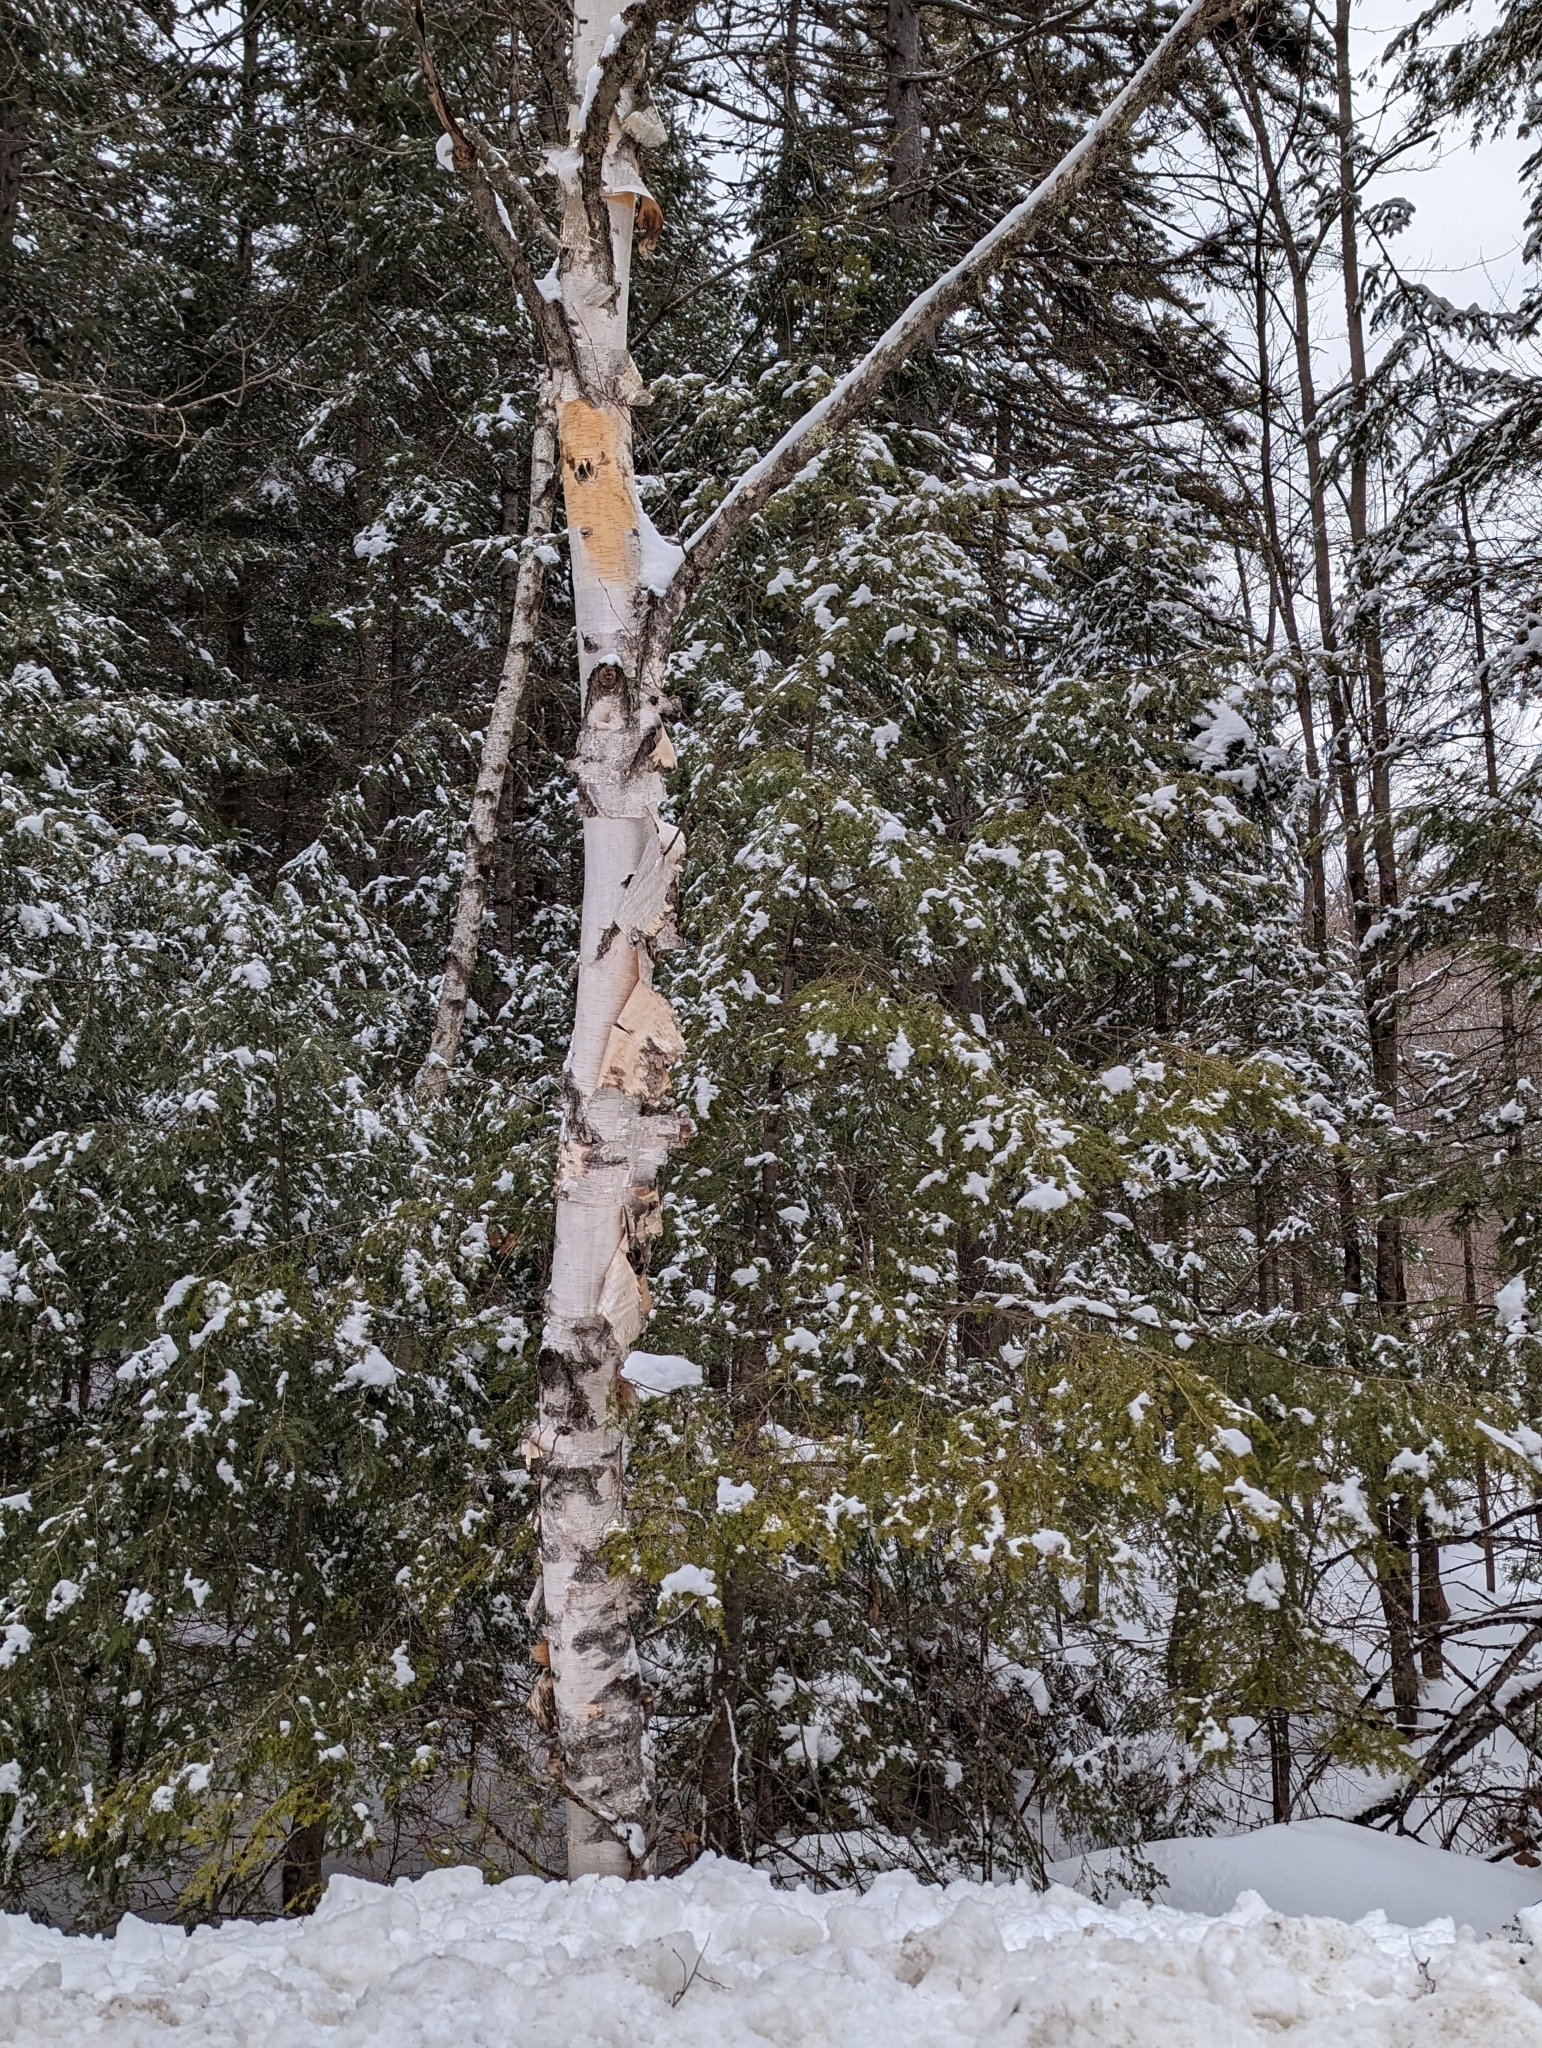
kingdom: Plantae
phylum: Tracheophyta
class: Pinopsida
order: Pinales
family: Pinaceae
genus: Tsuga
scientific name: Tsuga canadensis
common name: Eastern hemlock
